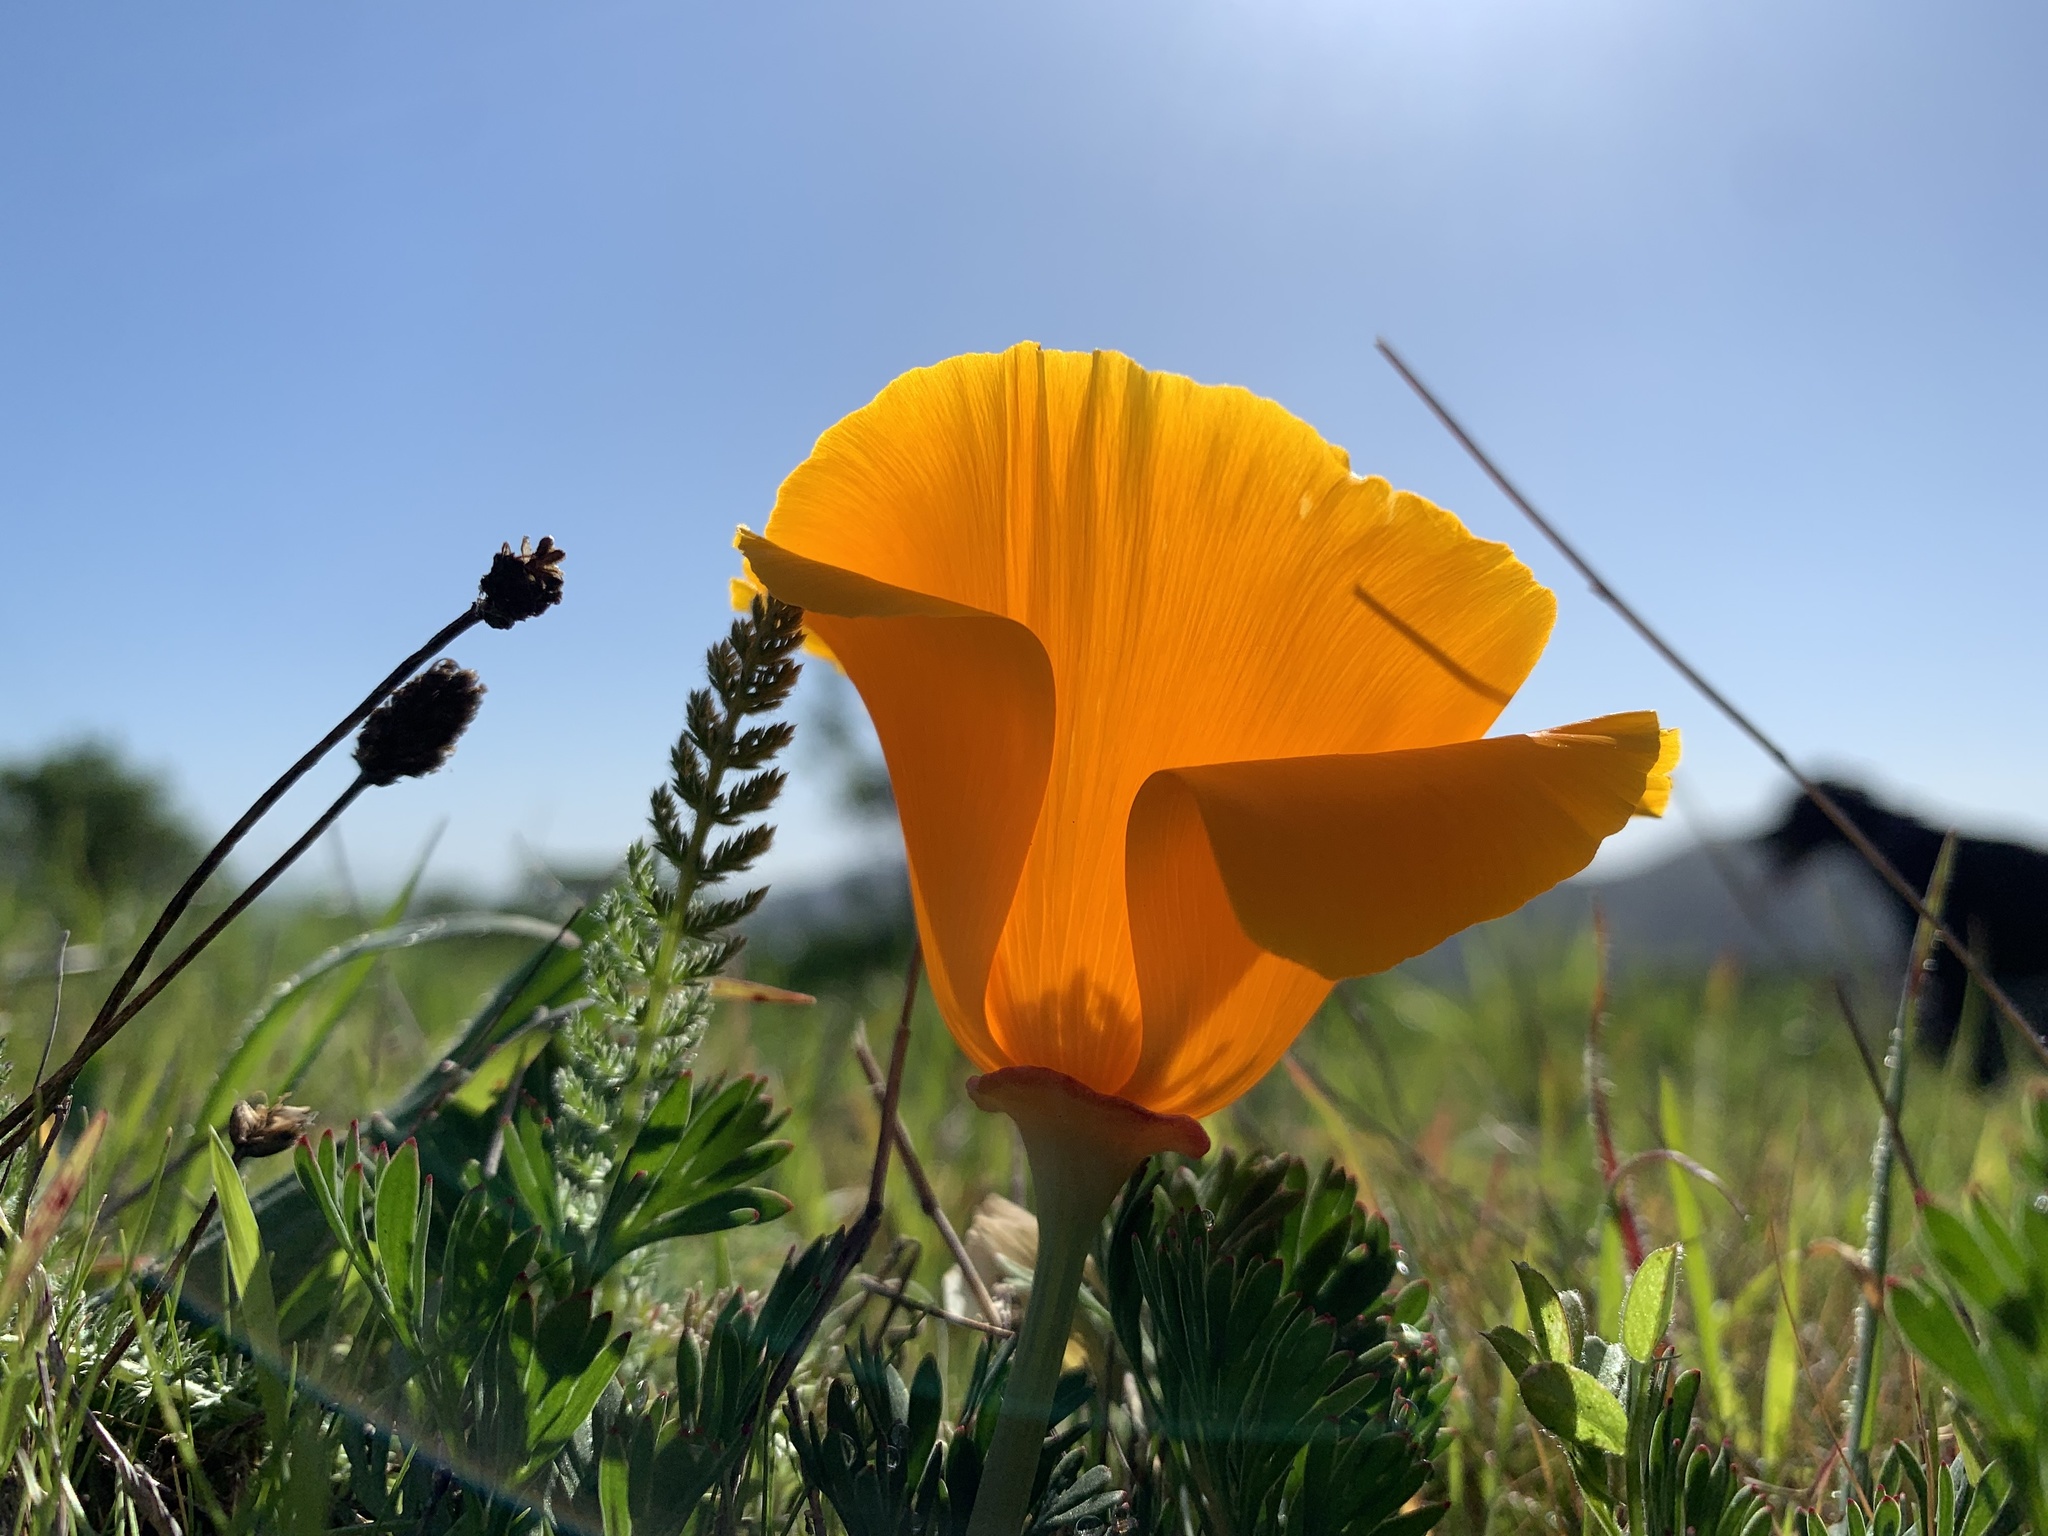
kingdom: Plantae
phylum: Tracheophyta
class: Magnoliopsida
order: Ranunculales
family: Papaveraceae
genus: Eschscholzia
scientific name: Eschscholzia californica
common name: California poppy
